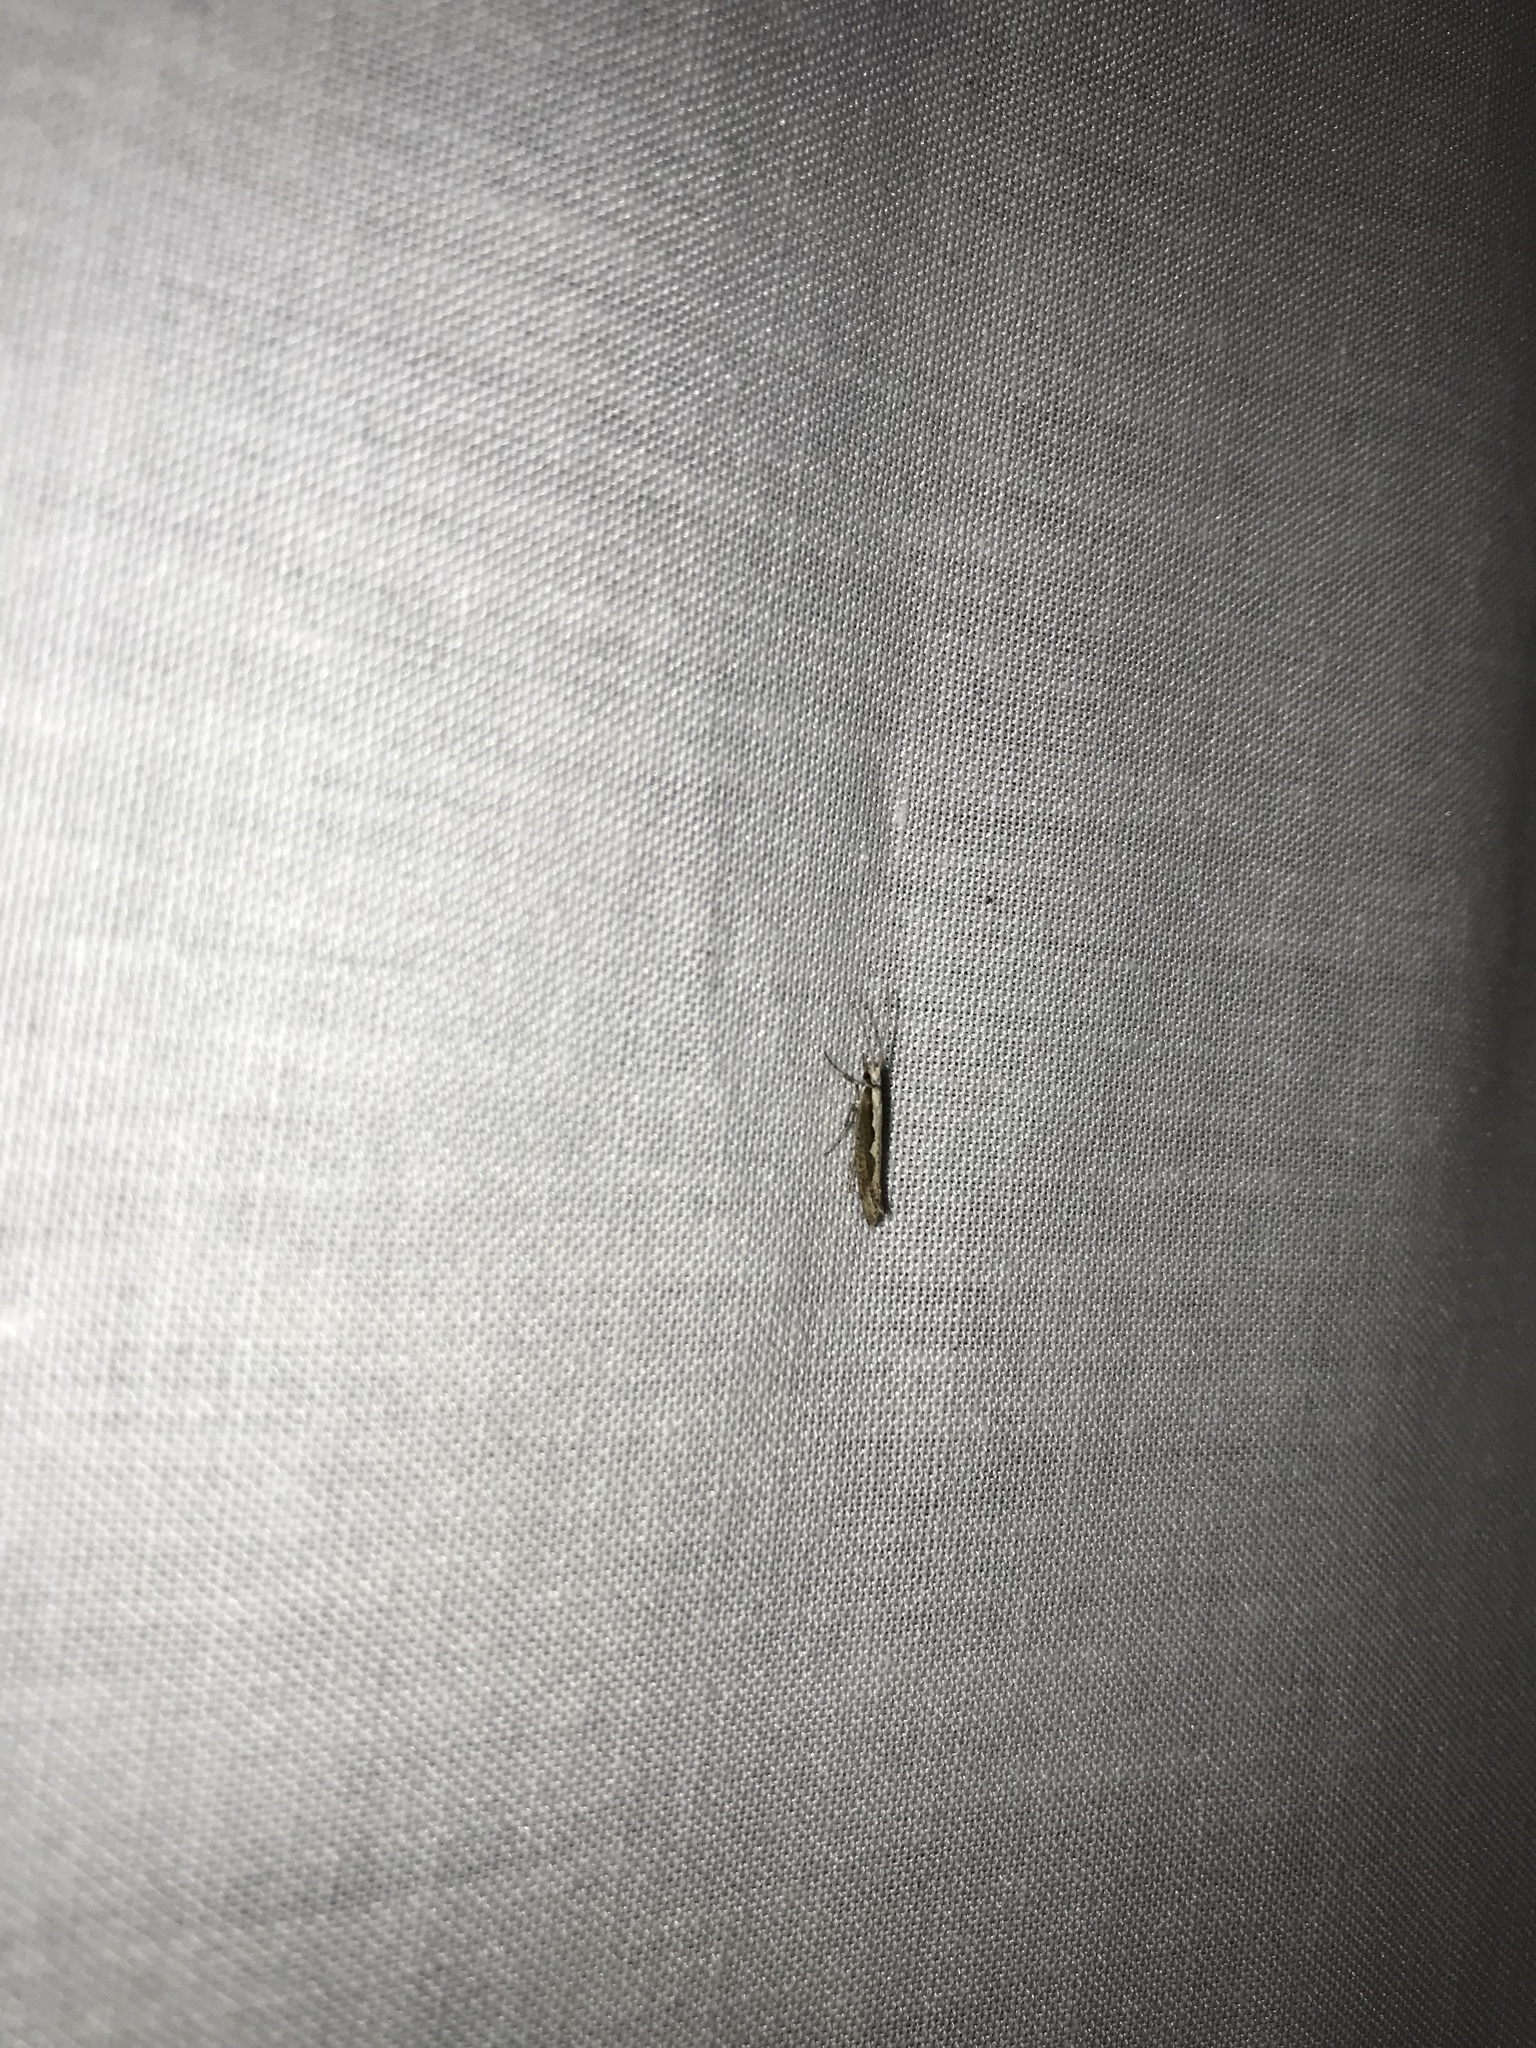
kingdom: Animalia
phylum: Arthropoda
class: Insecta
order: Lepidoptera
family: Plutellidae
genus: Plutella
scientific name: Plutella xylostella
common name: Diamond-back moth
